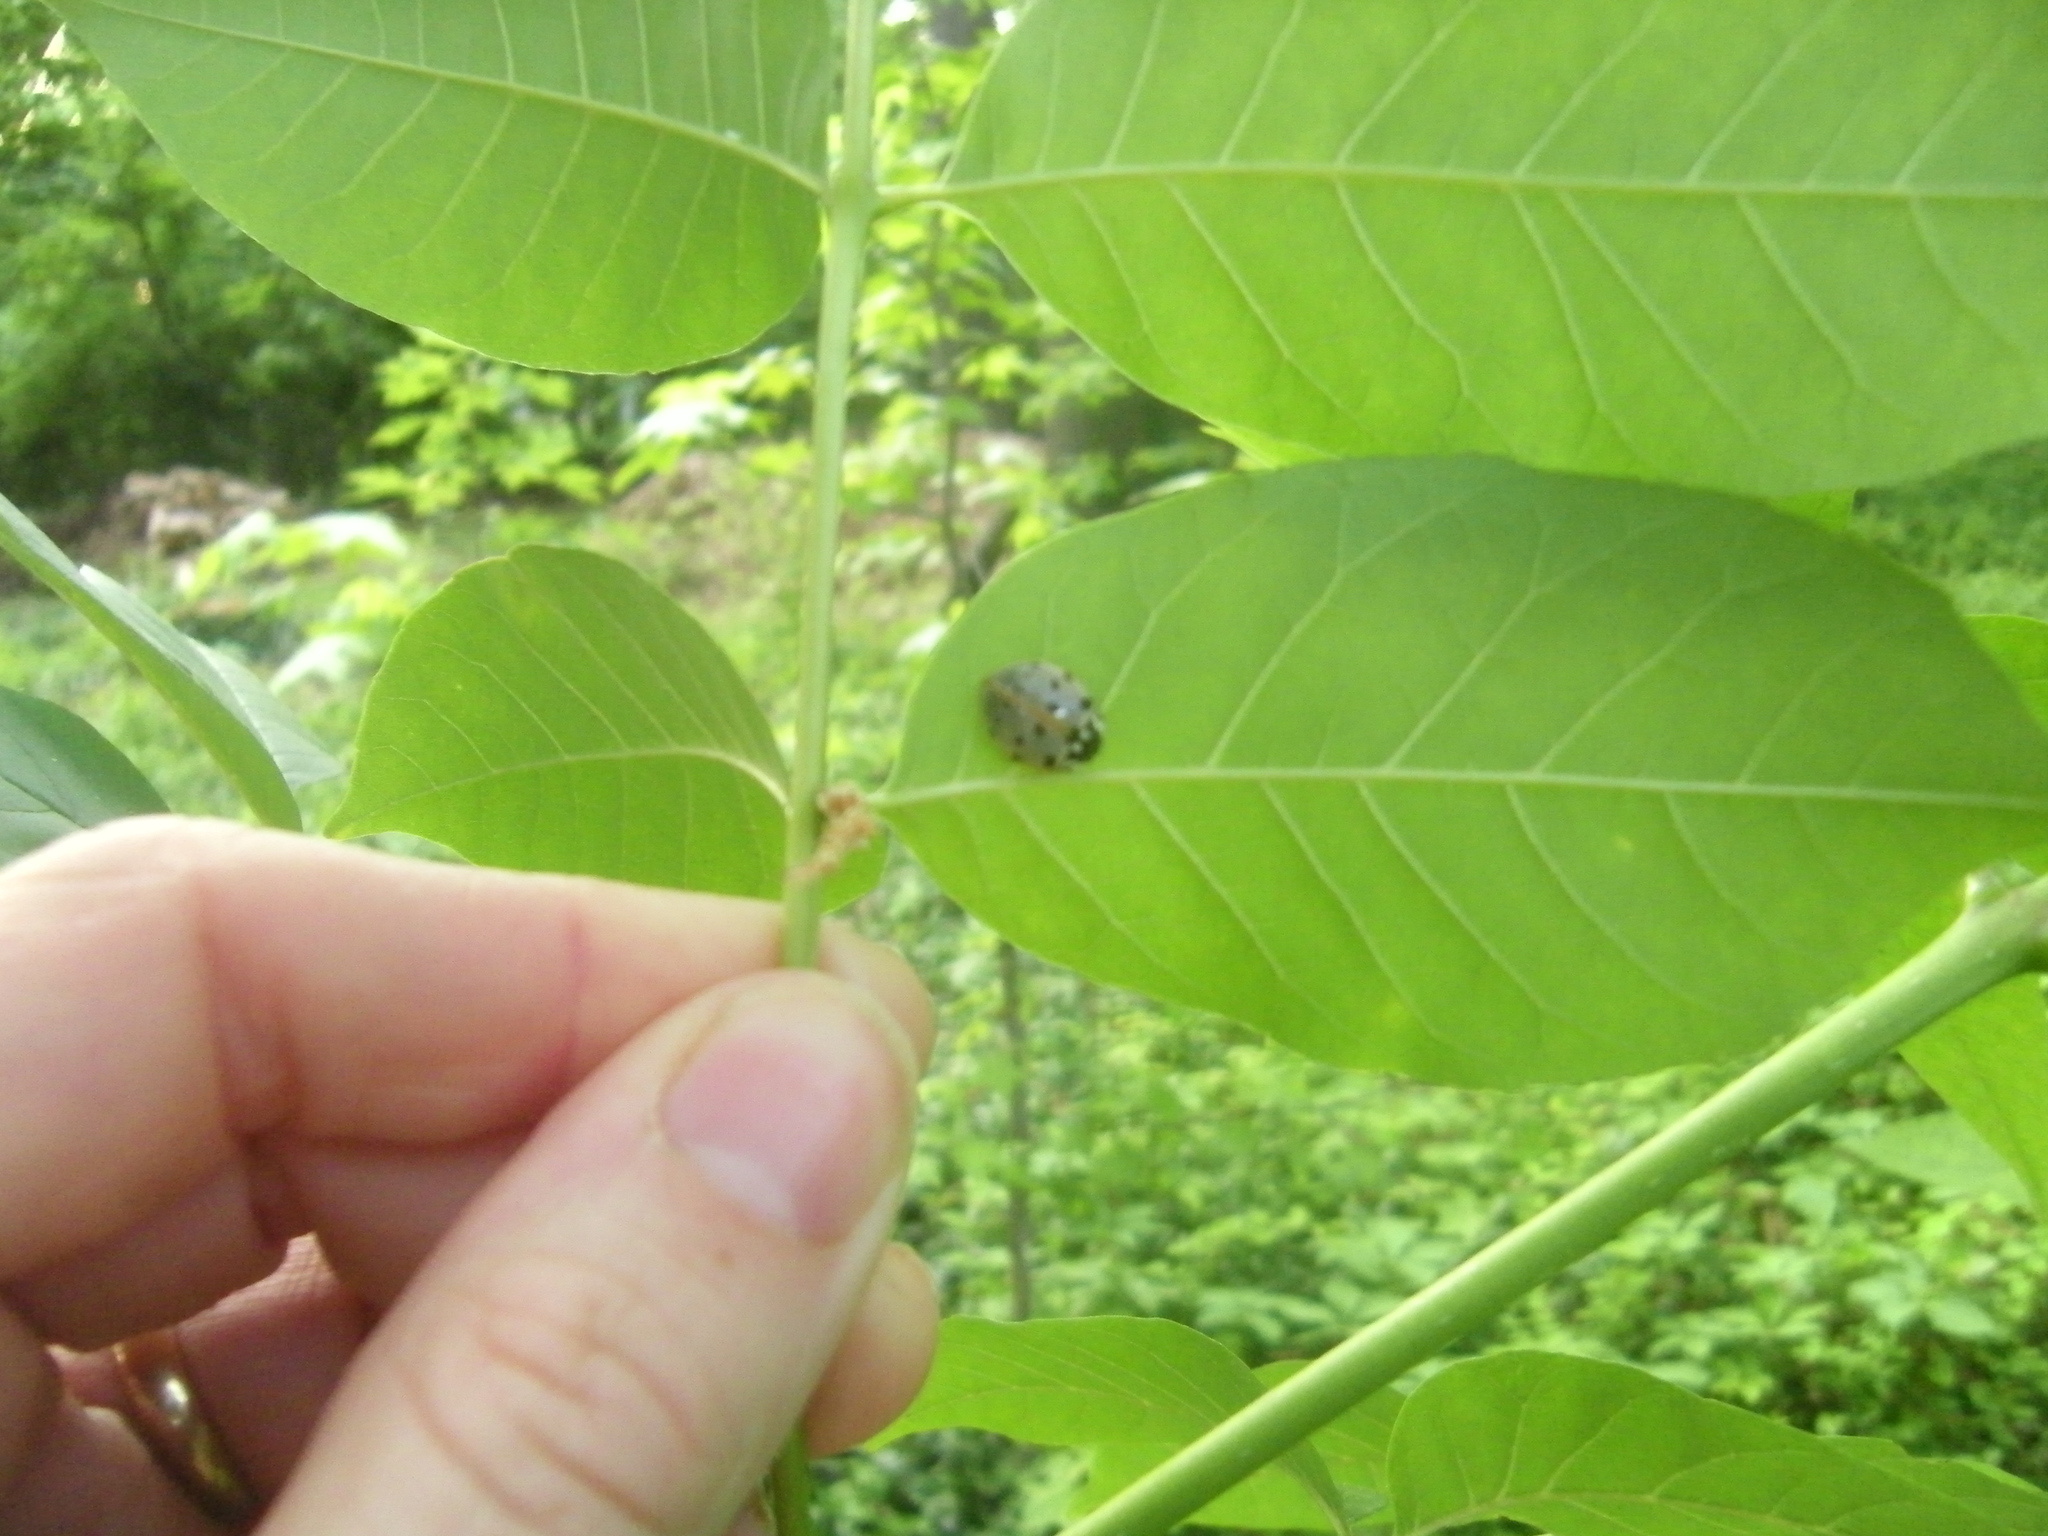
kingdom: Animalia
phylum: Arthropoda
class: Insecta
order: Coleoptera
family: Coccinellidae
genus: Anatis
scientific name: Anatis labiculata
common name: Fifteen-spotted lady beetle
